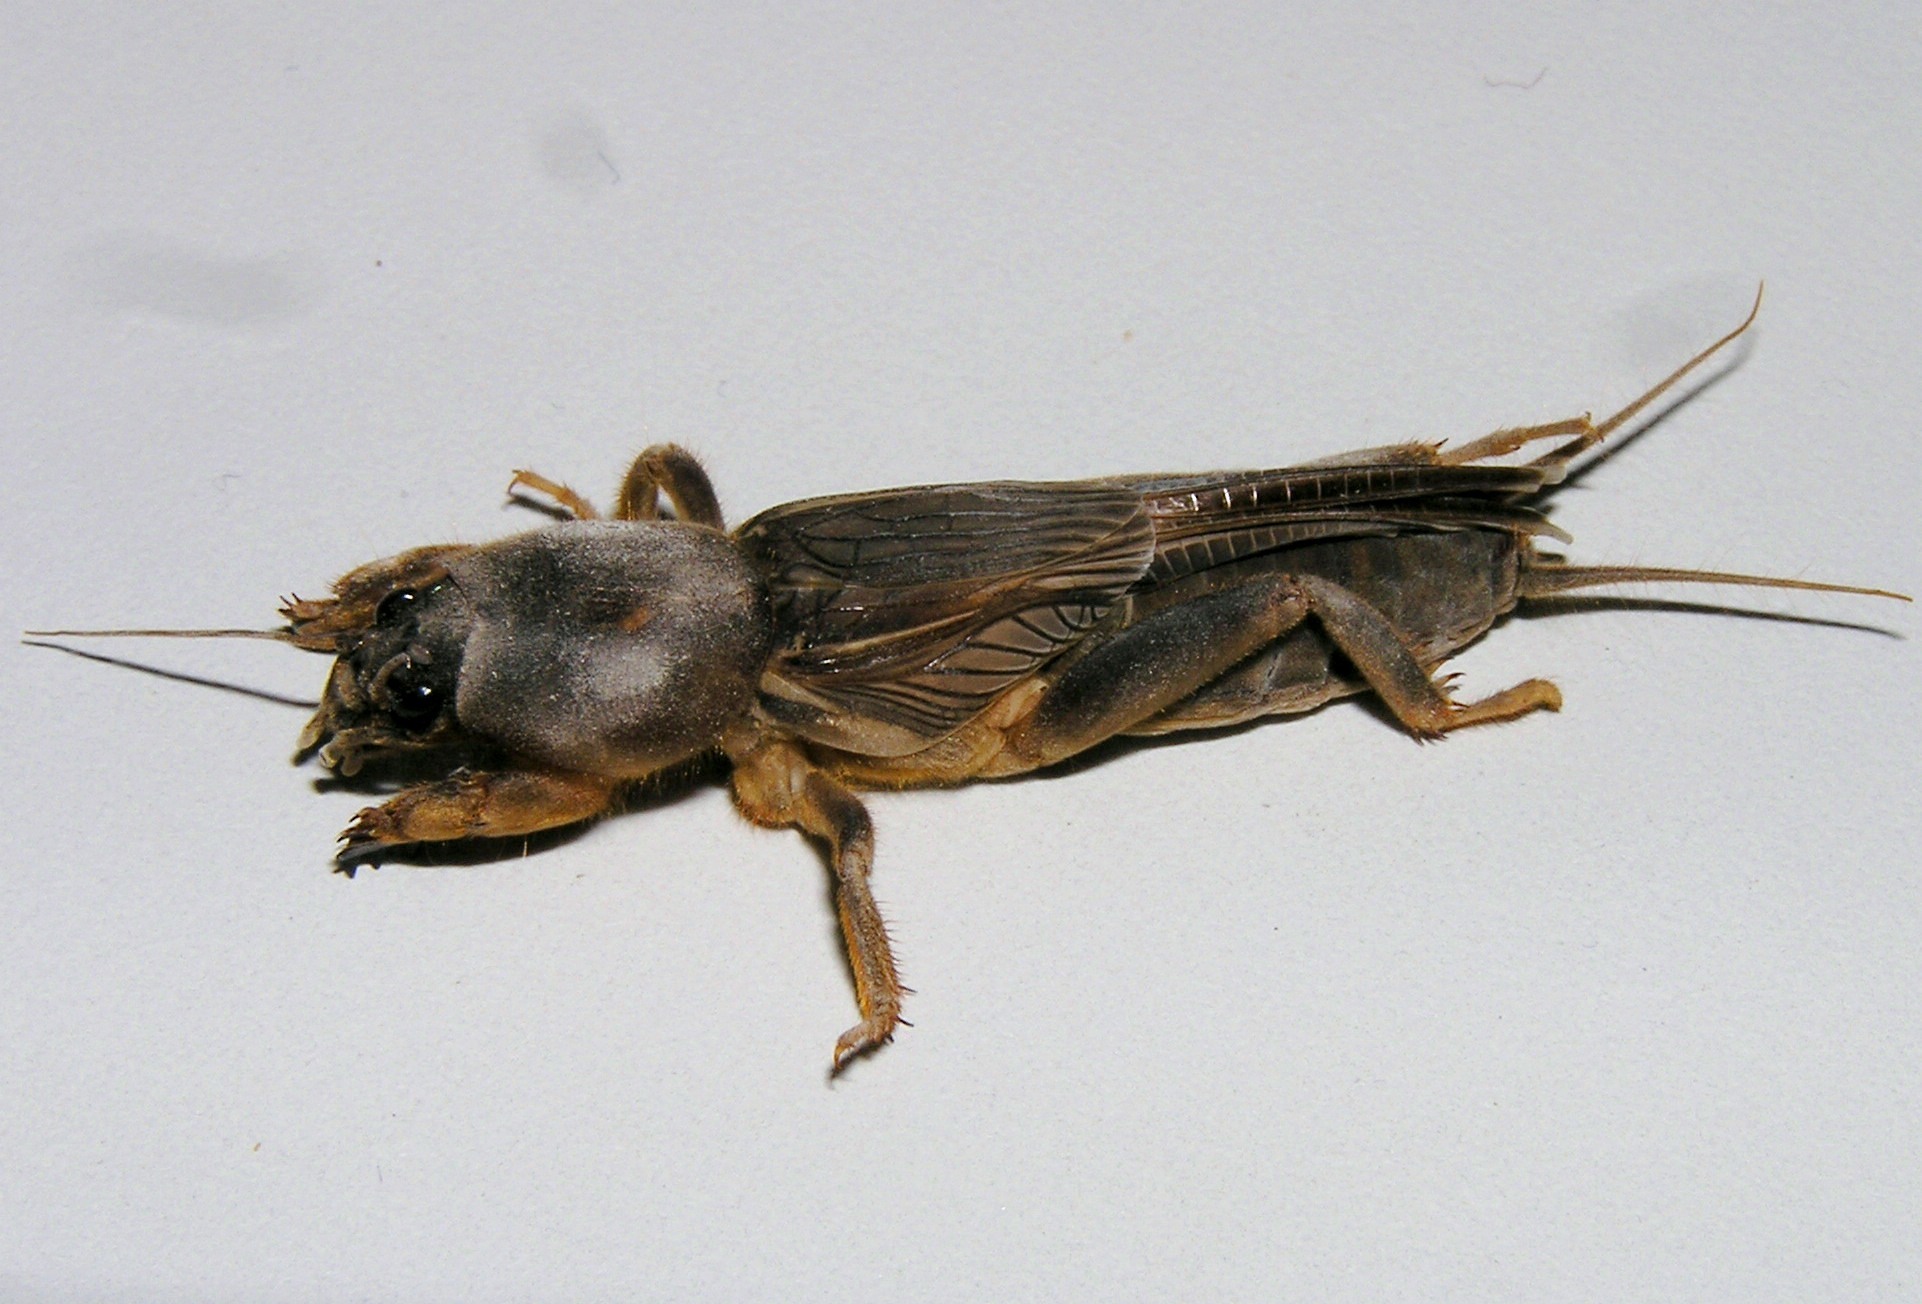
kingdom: Animalia
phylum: Arthropoda
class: Insecta
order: Orthoptera
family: Gryllotalpidae
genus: Gryllotalpa
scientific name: Gryllotalpa orientalis
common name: Grasshopper
